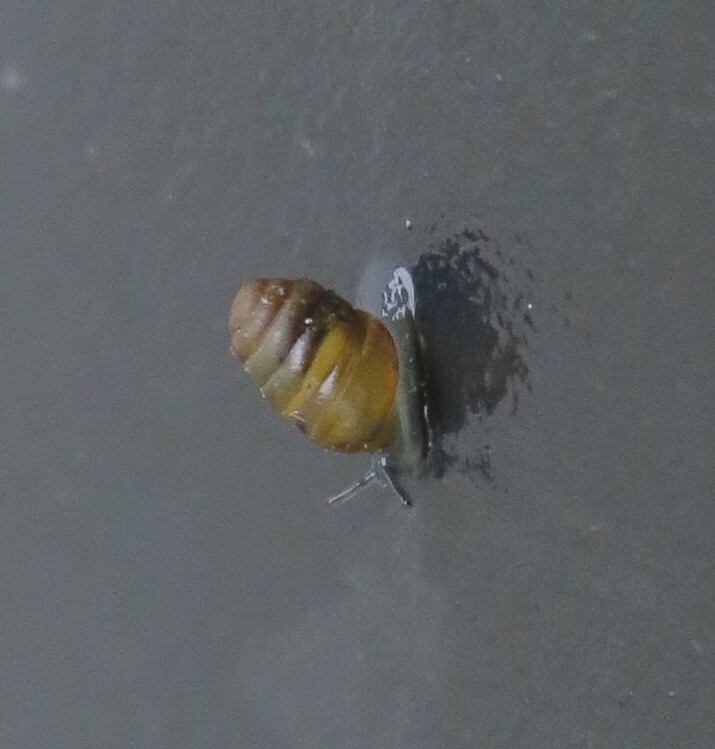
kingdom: Animalia
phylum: Mollusca
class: Gastropoda
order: Stylommatophora
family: Lauriidae
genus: Lauria
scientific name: Lauria cylindracea
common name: Common chrysalis snail
